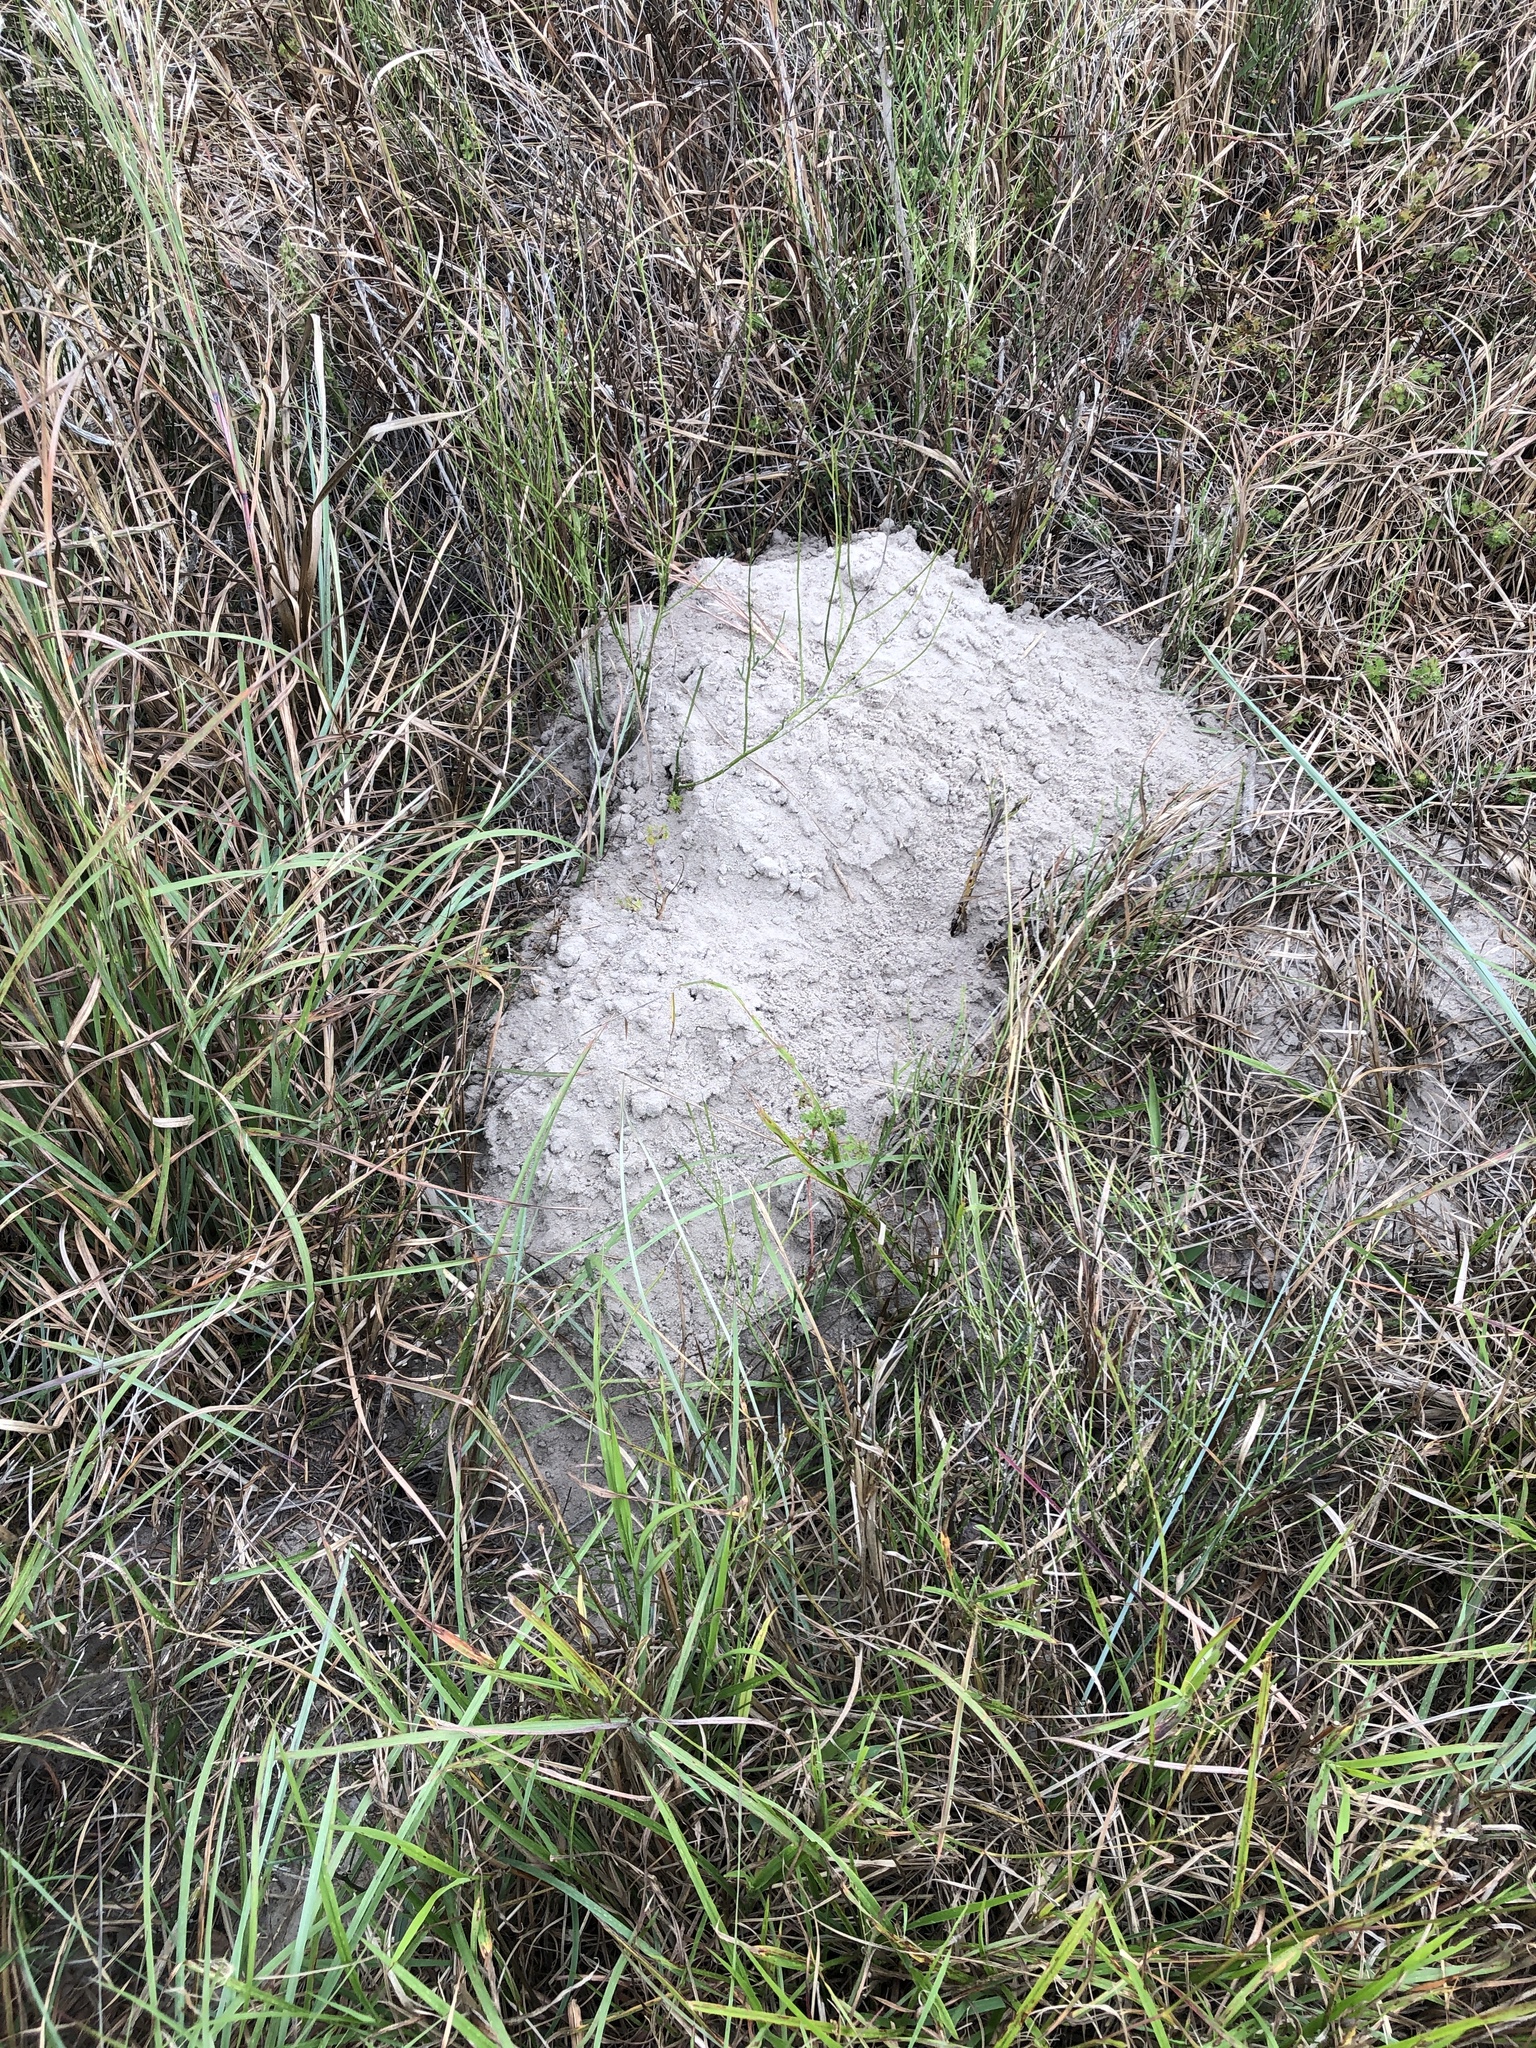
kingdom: Animalia
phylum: Chordata
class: Mammalia
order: Rodentia
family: Geomyidae
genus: Geomys
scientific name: Geomys personatus
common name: Texas pocket gopher
